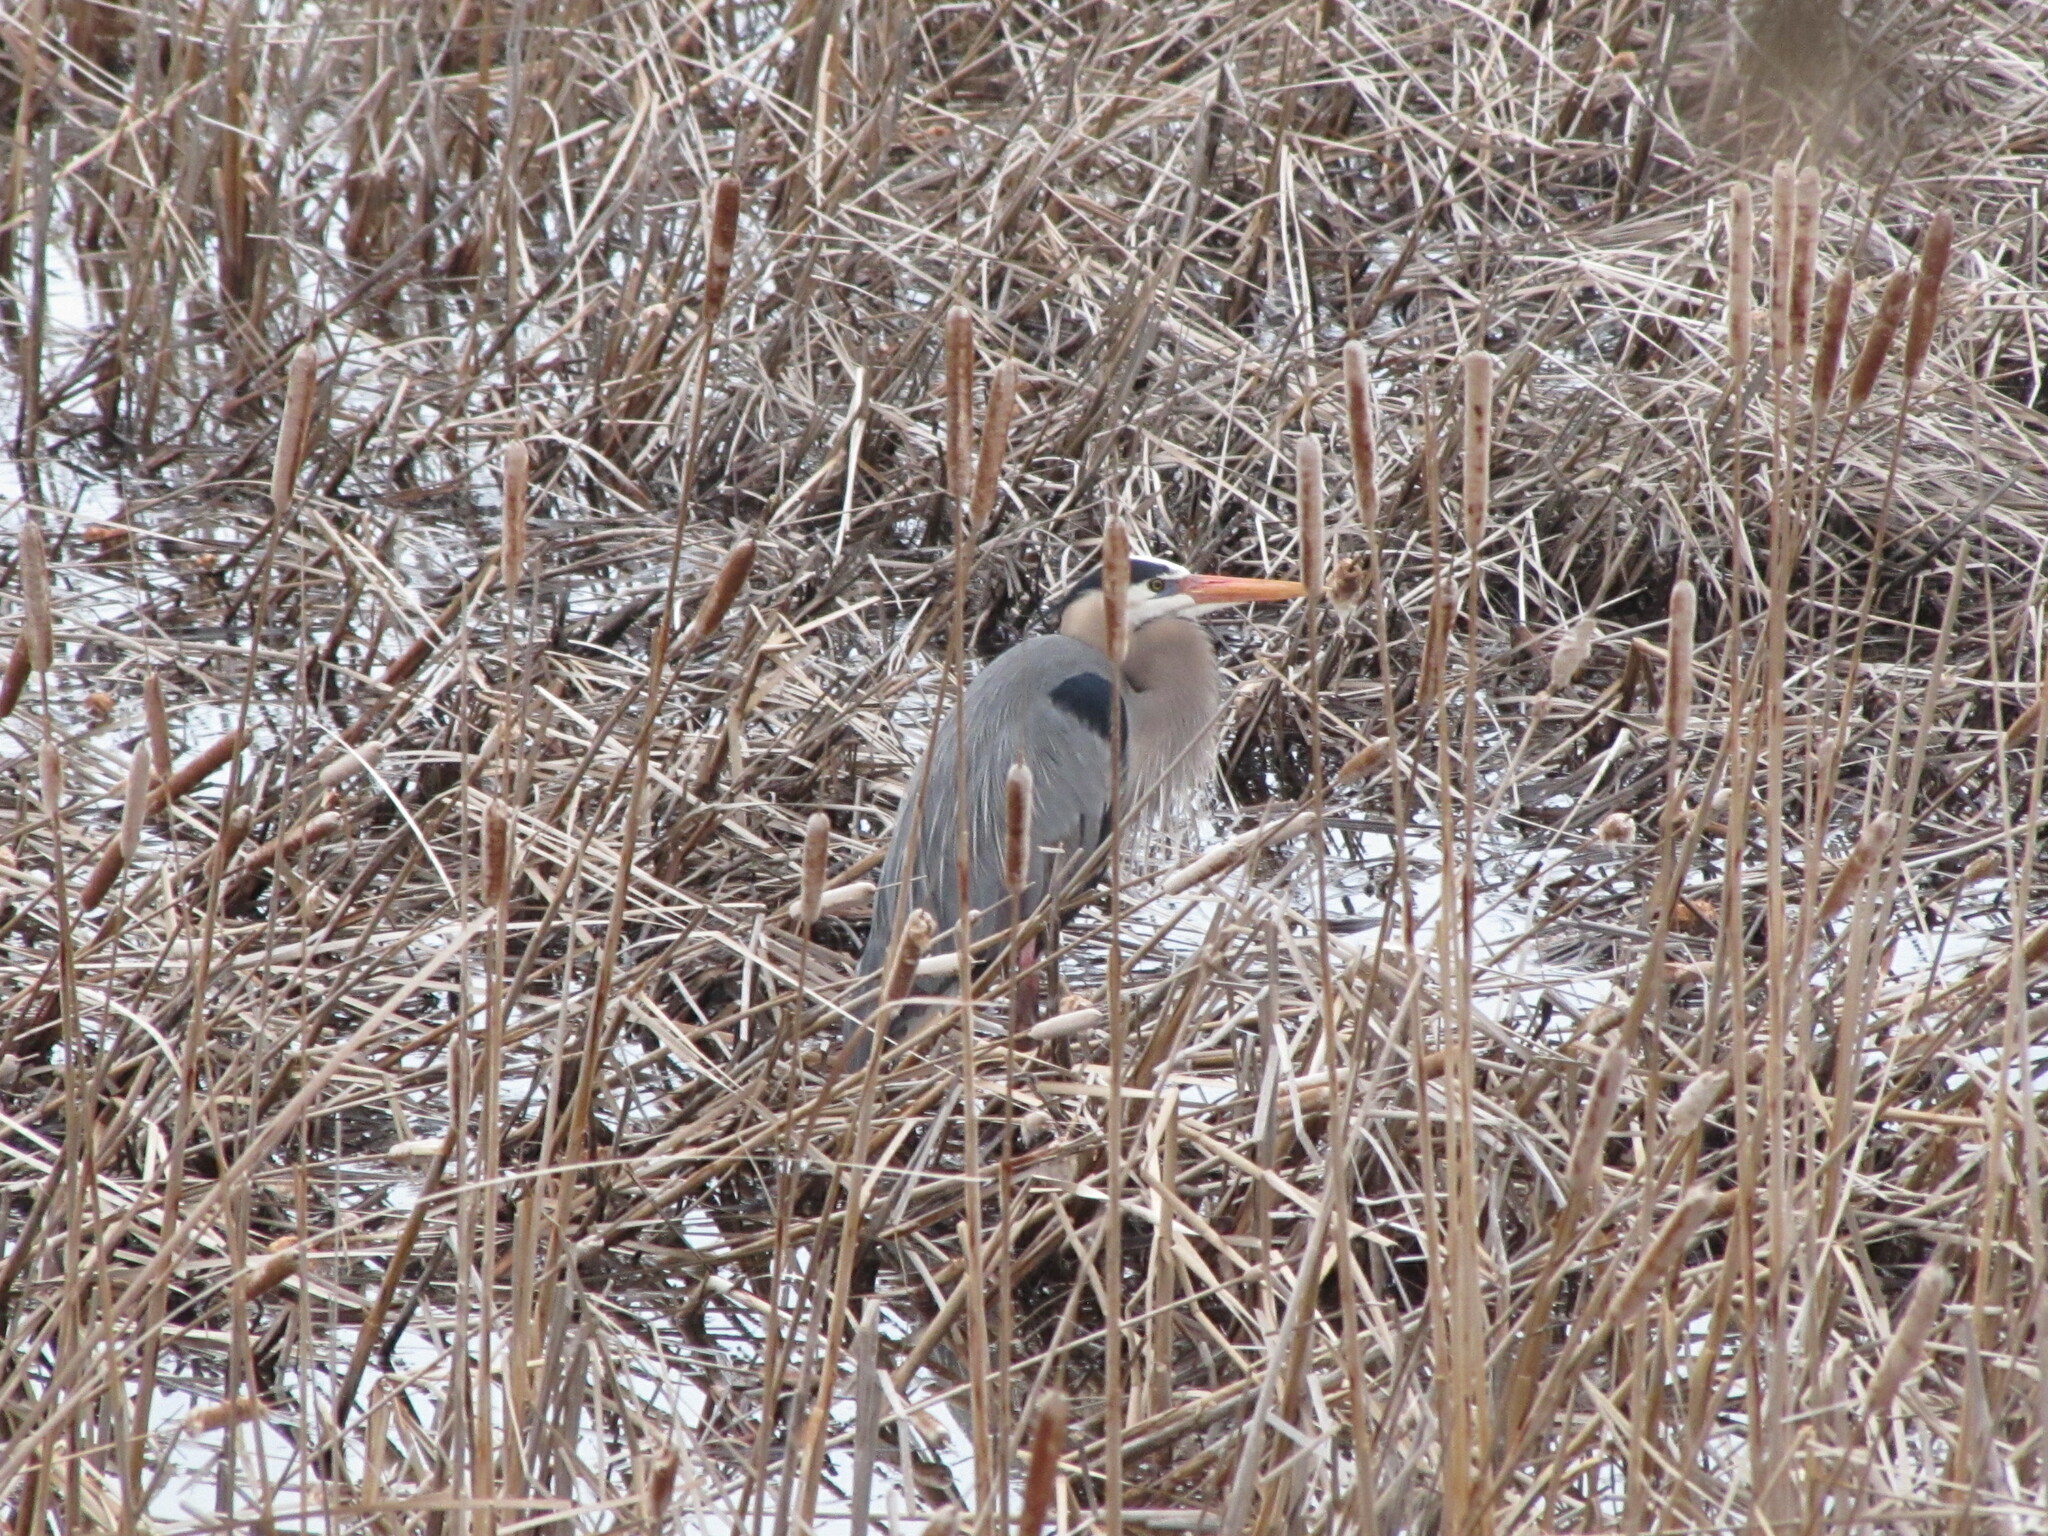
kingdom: Animalia
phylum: Chordata
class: Aves
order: Pelecaniformes
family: Ardeidae
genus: Ardea
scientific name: Ardea herodias
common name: Great blue heron
